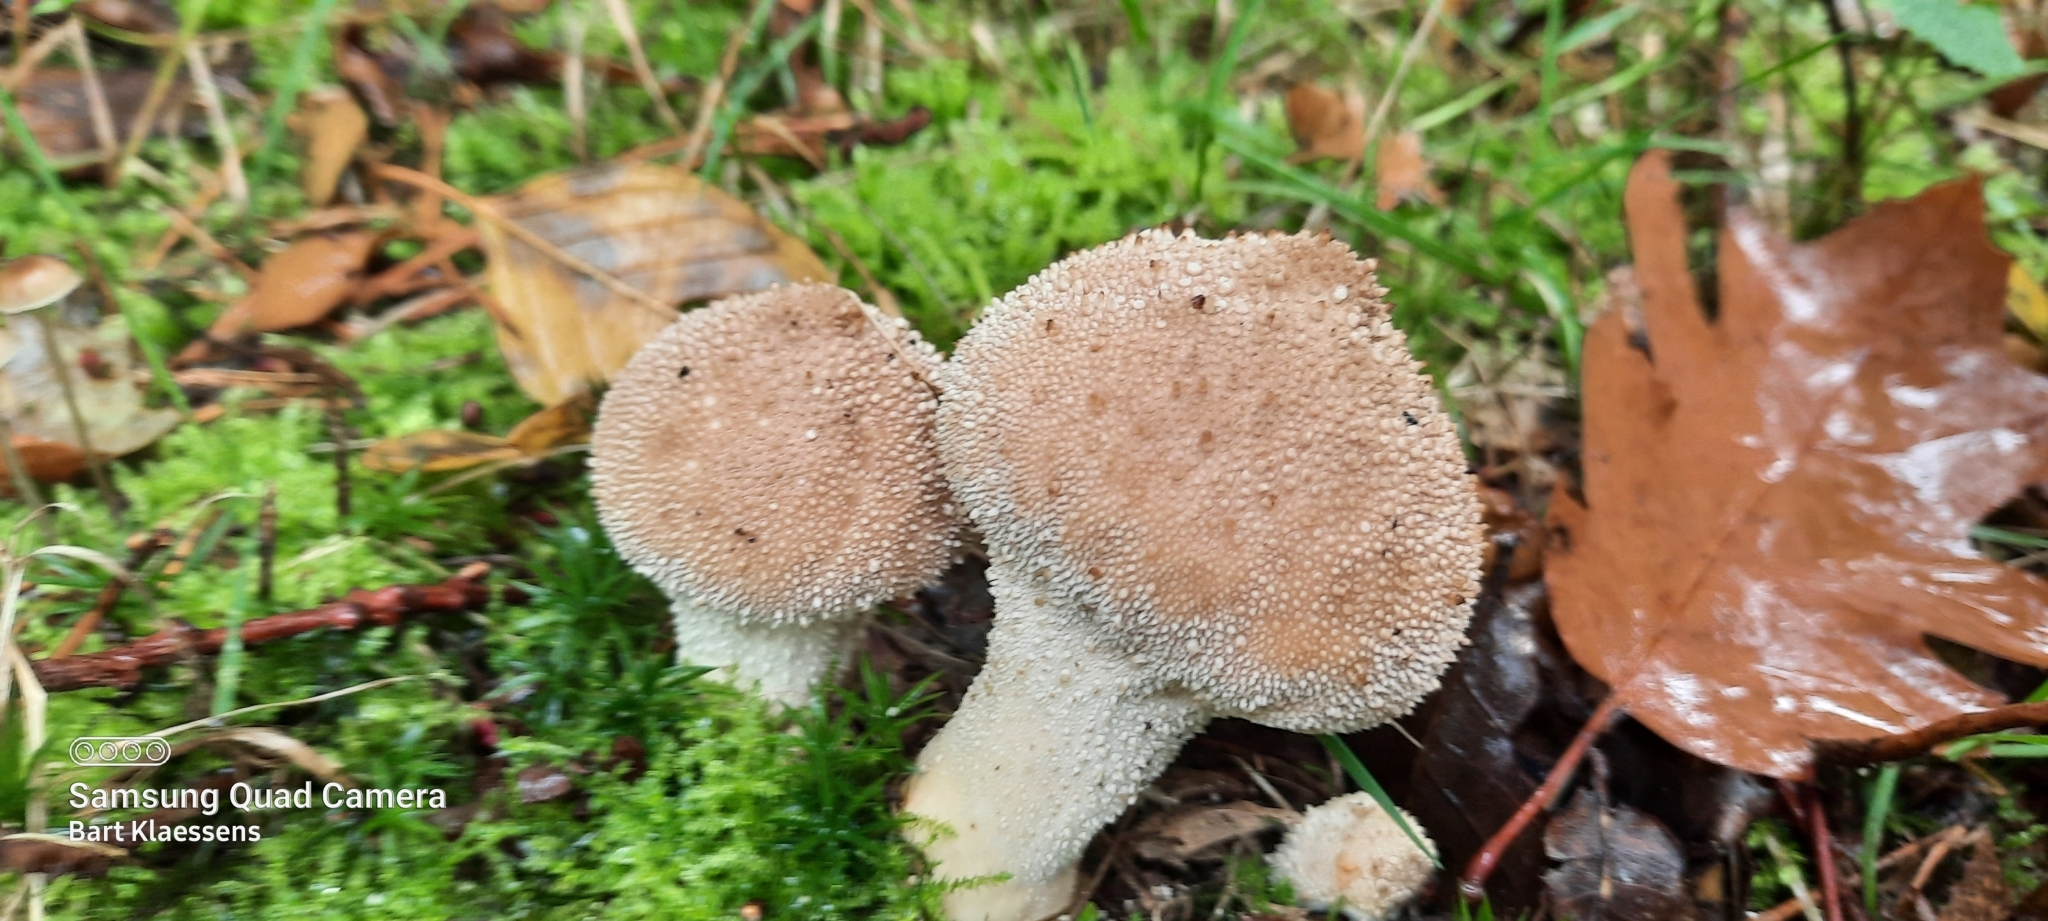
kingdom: Fungi
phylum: Basidiomycota
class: Agaricomycetes
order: Agaricales
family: Lycoperdaceae
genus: Lycoperdon
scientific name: Lycoperdon perlatum
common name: Common puffball
